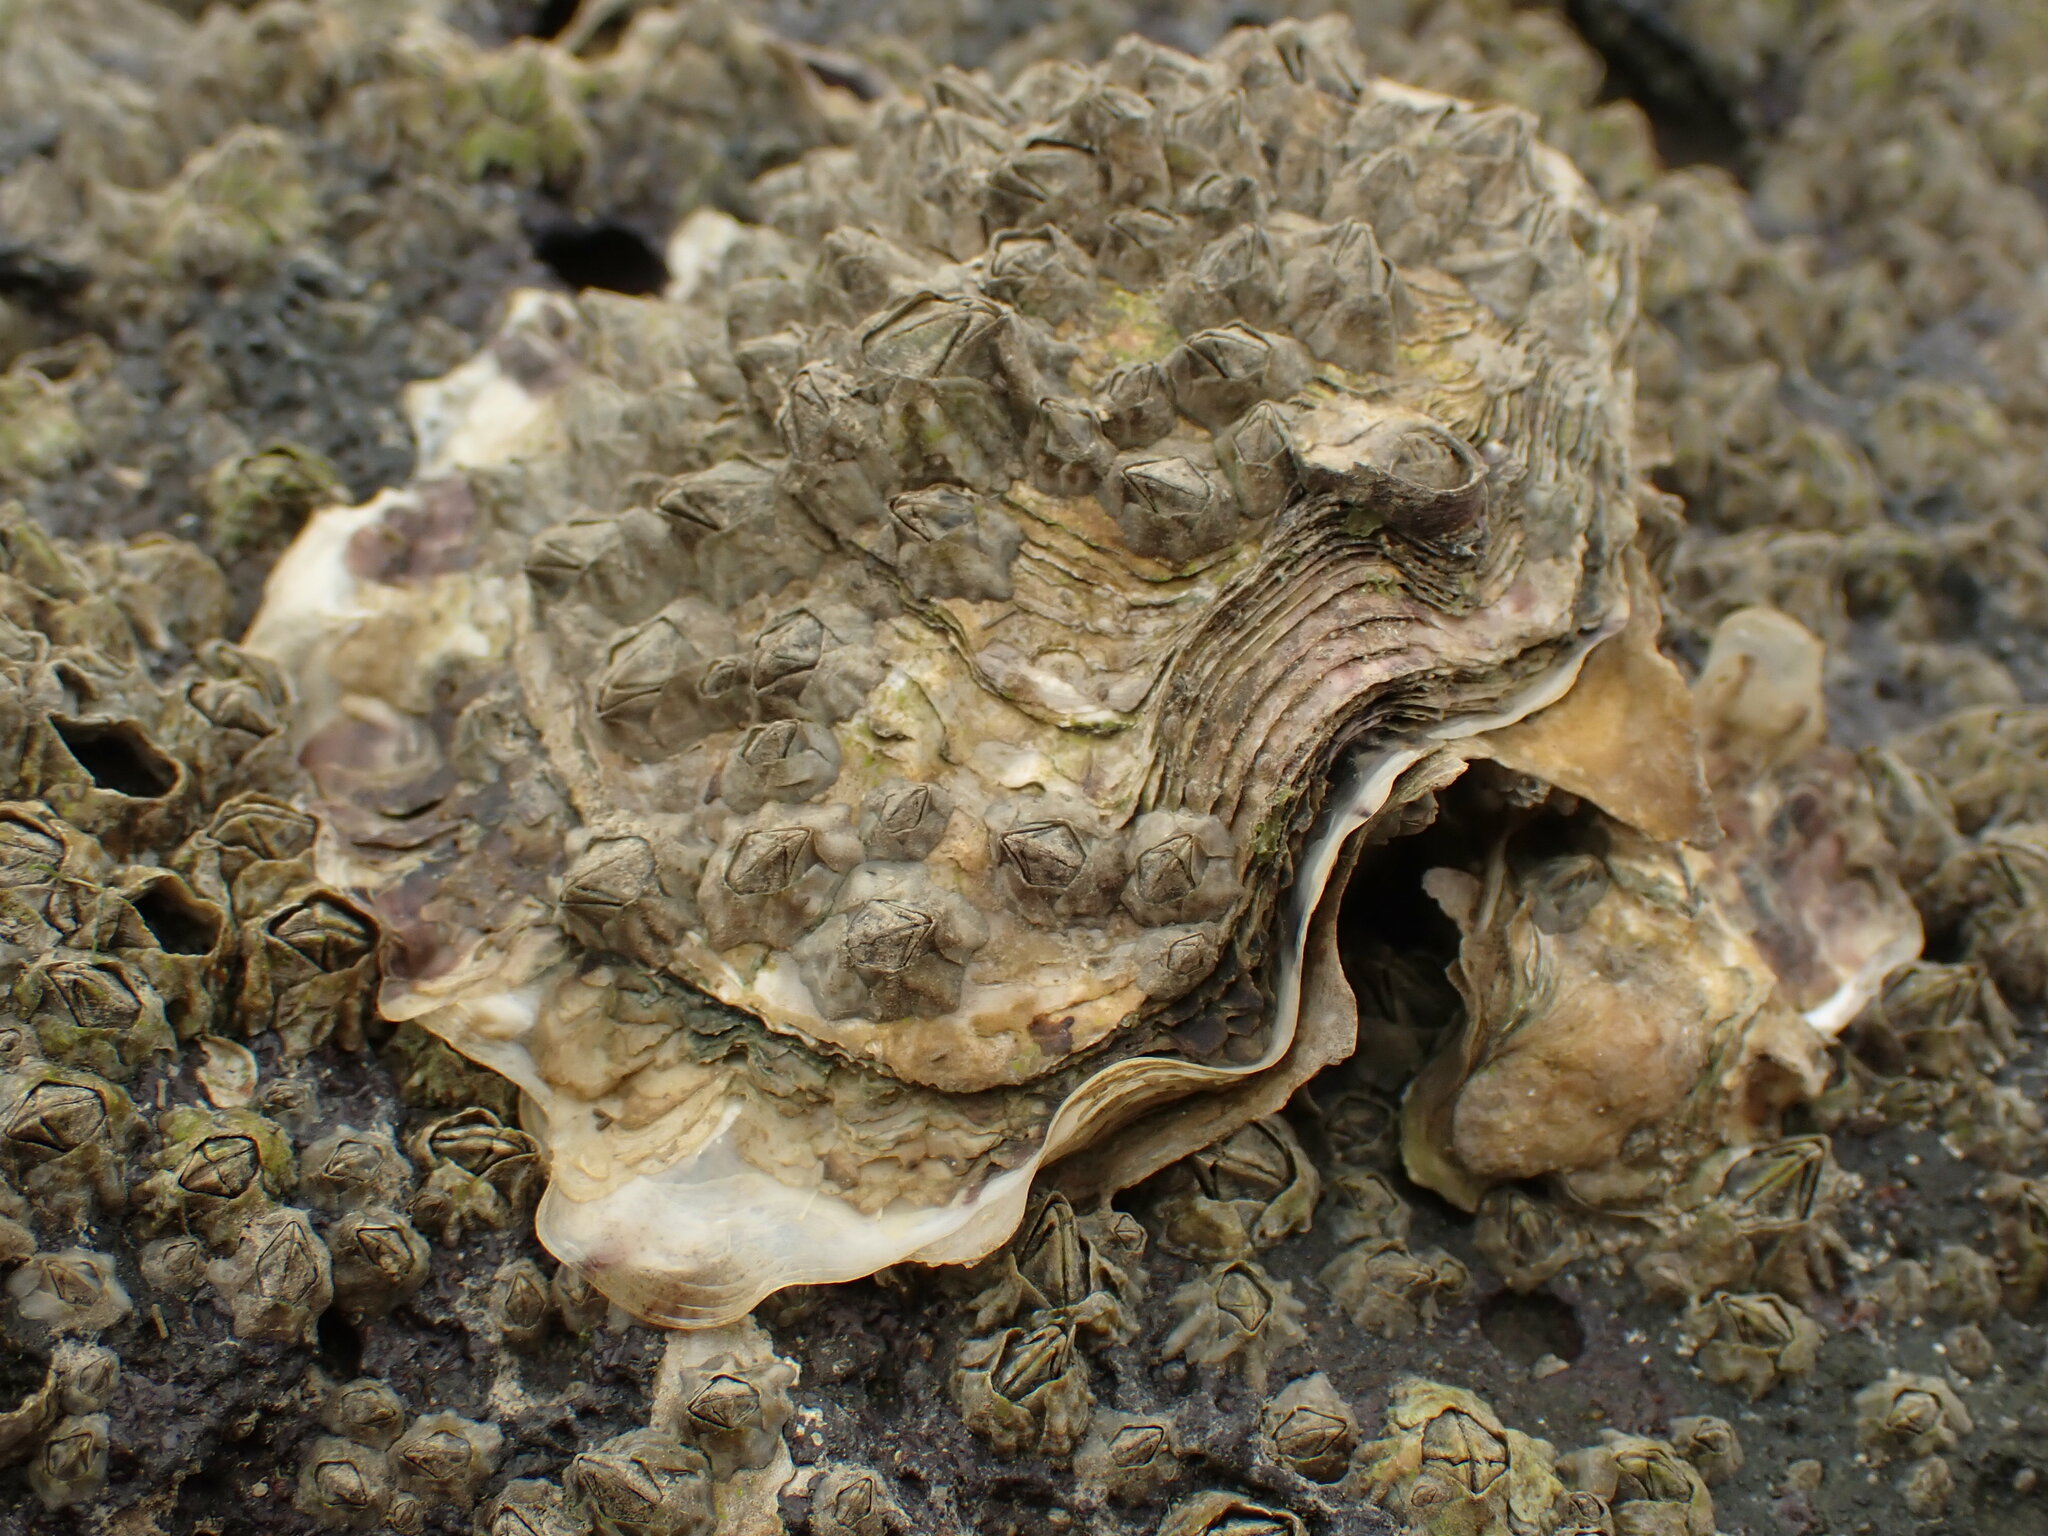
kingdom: Animalia
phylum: Mollusca
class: Bivalvia
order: Ostreida
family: Ostreidae
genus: Magallana
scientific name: Magallana gigas
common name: Pacific oyster
